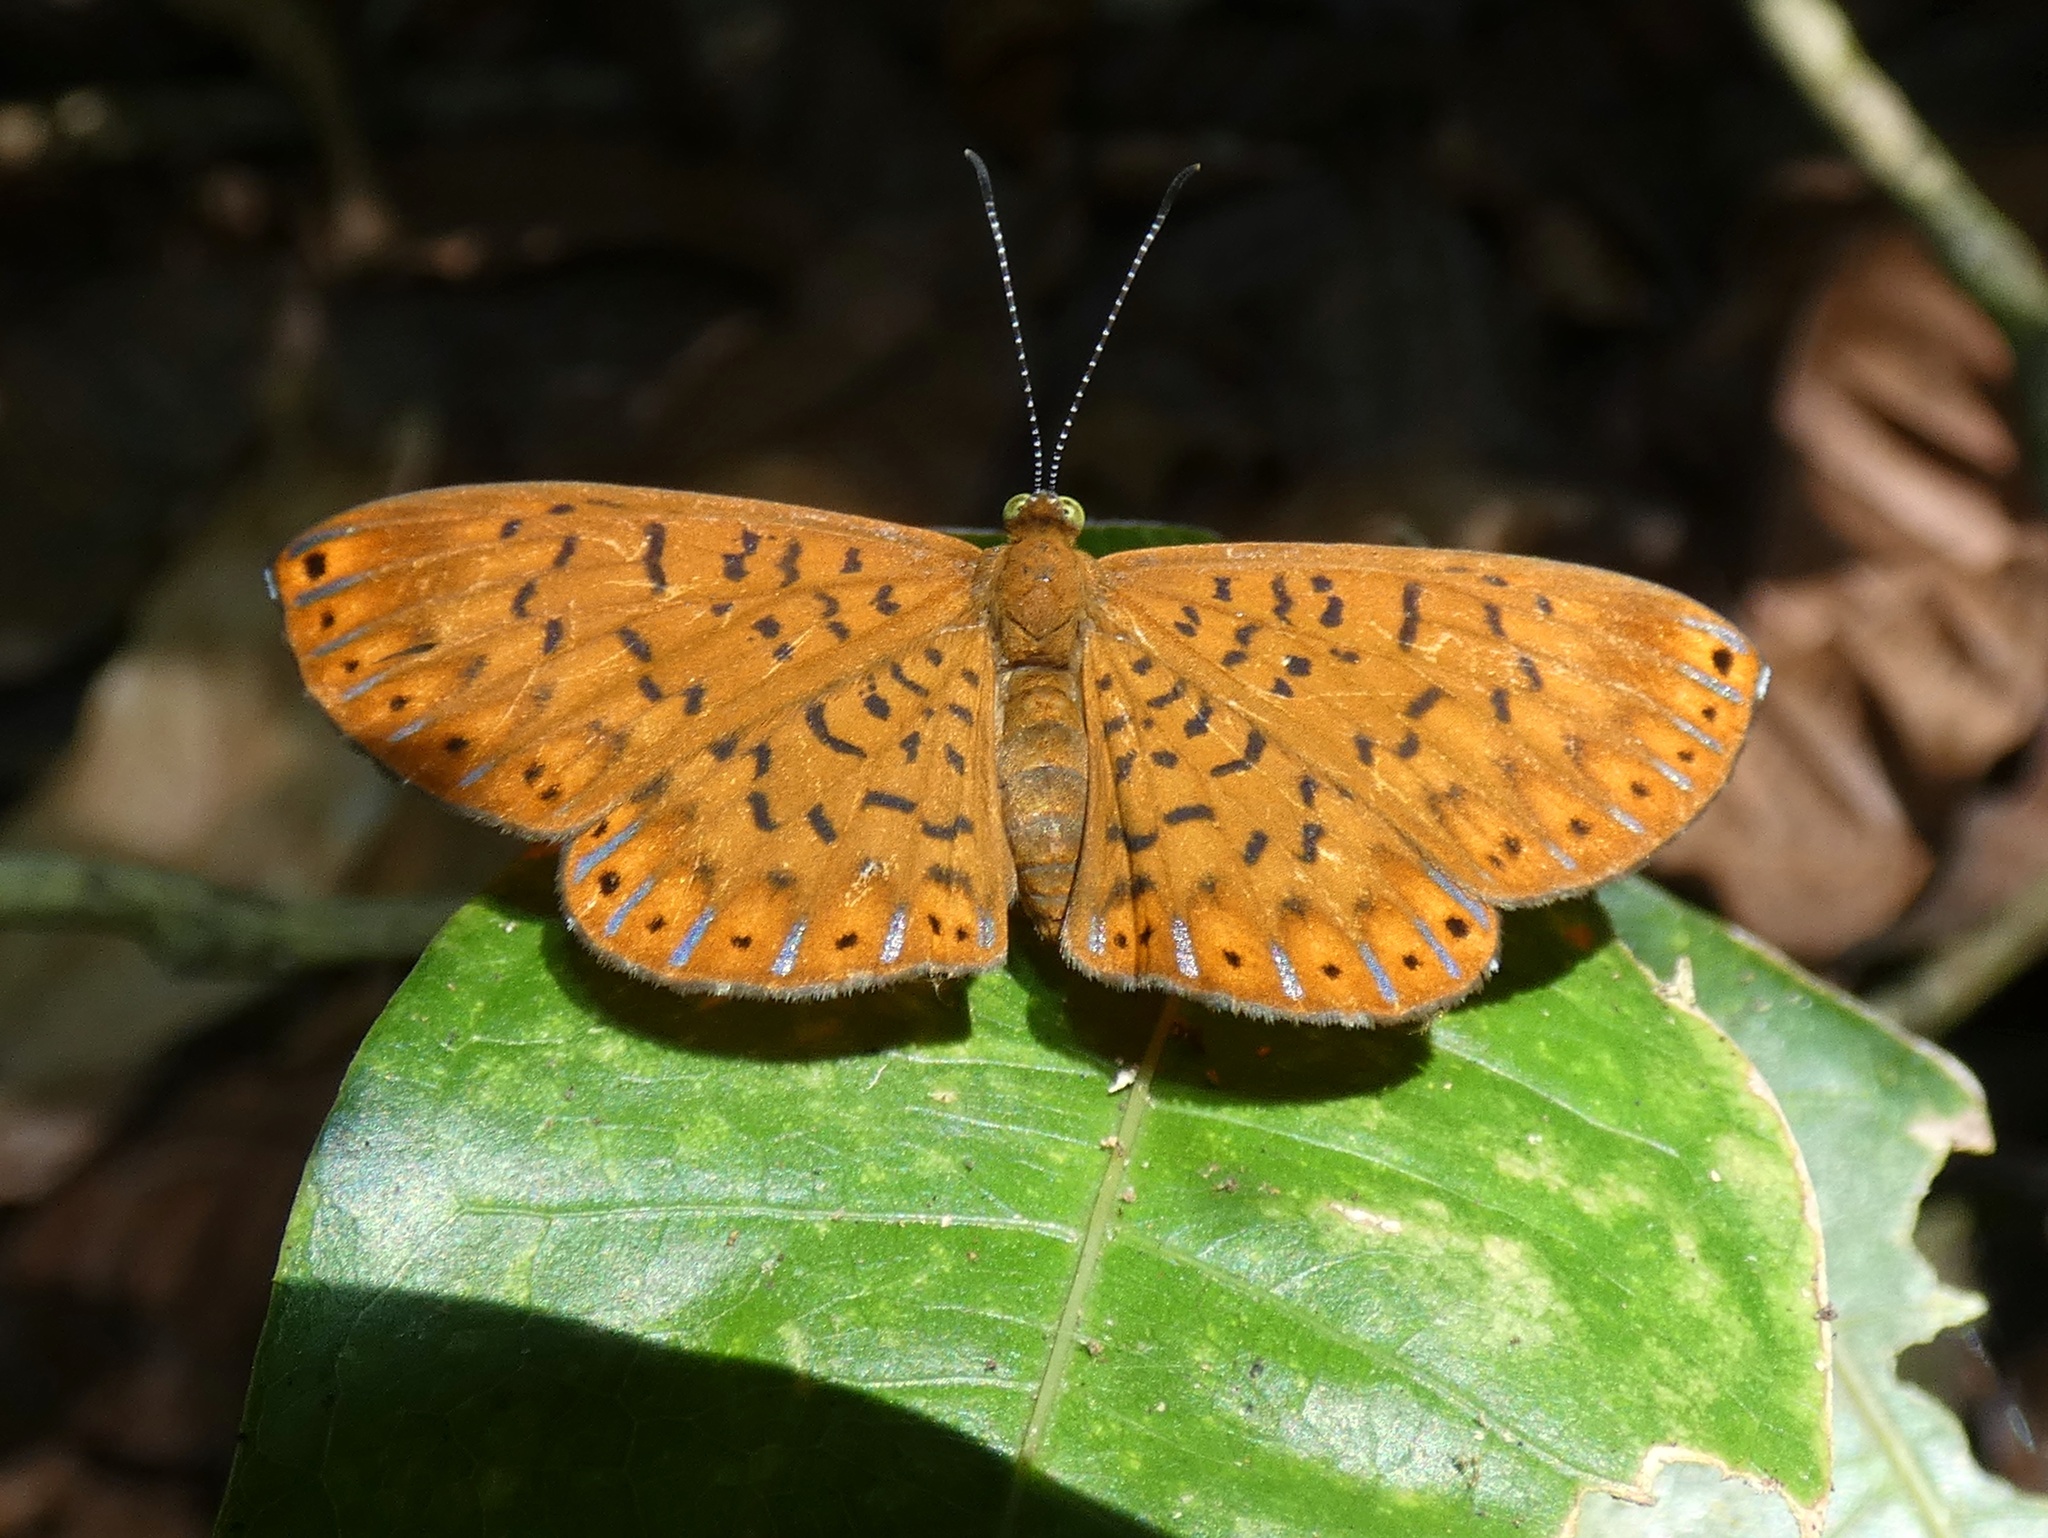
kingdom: Animalia
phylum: Arthropoda
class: Insecta
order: Lepidoptera
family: Riodinidae
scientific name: Riodinidae
